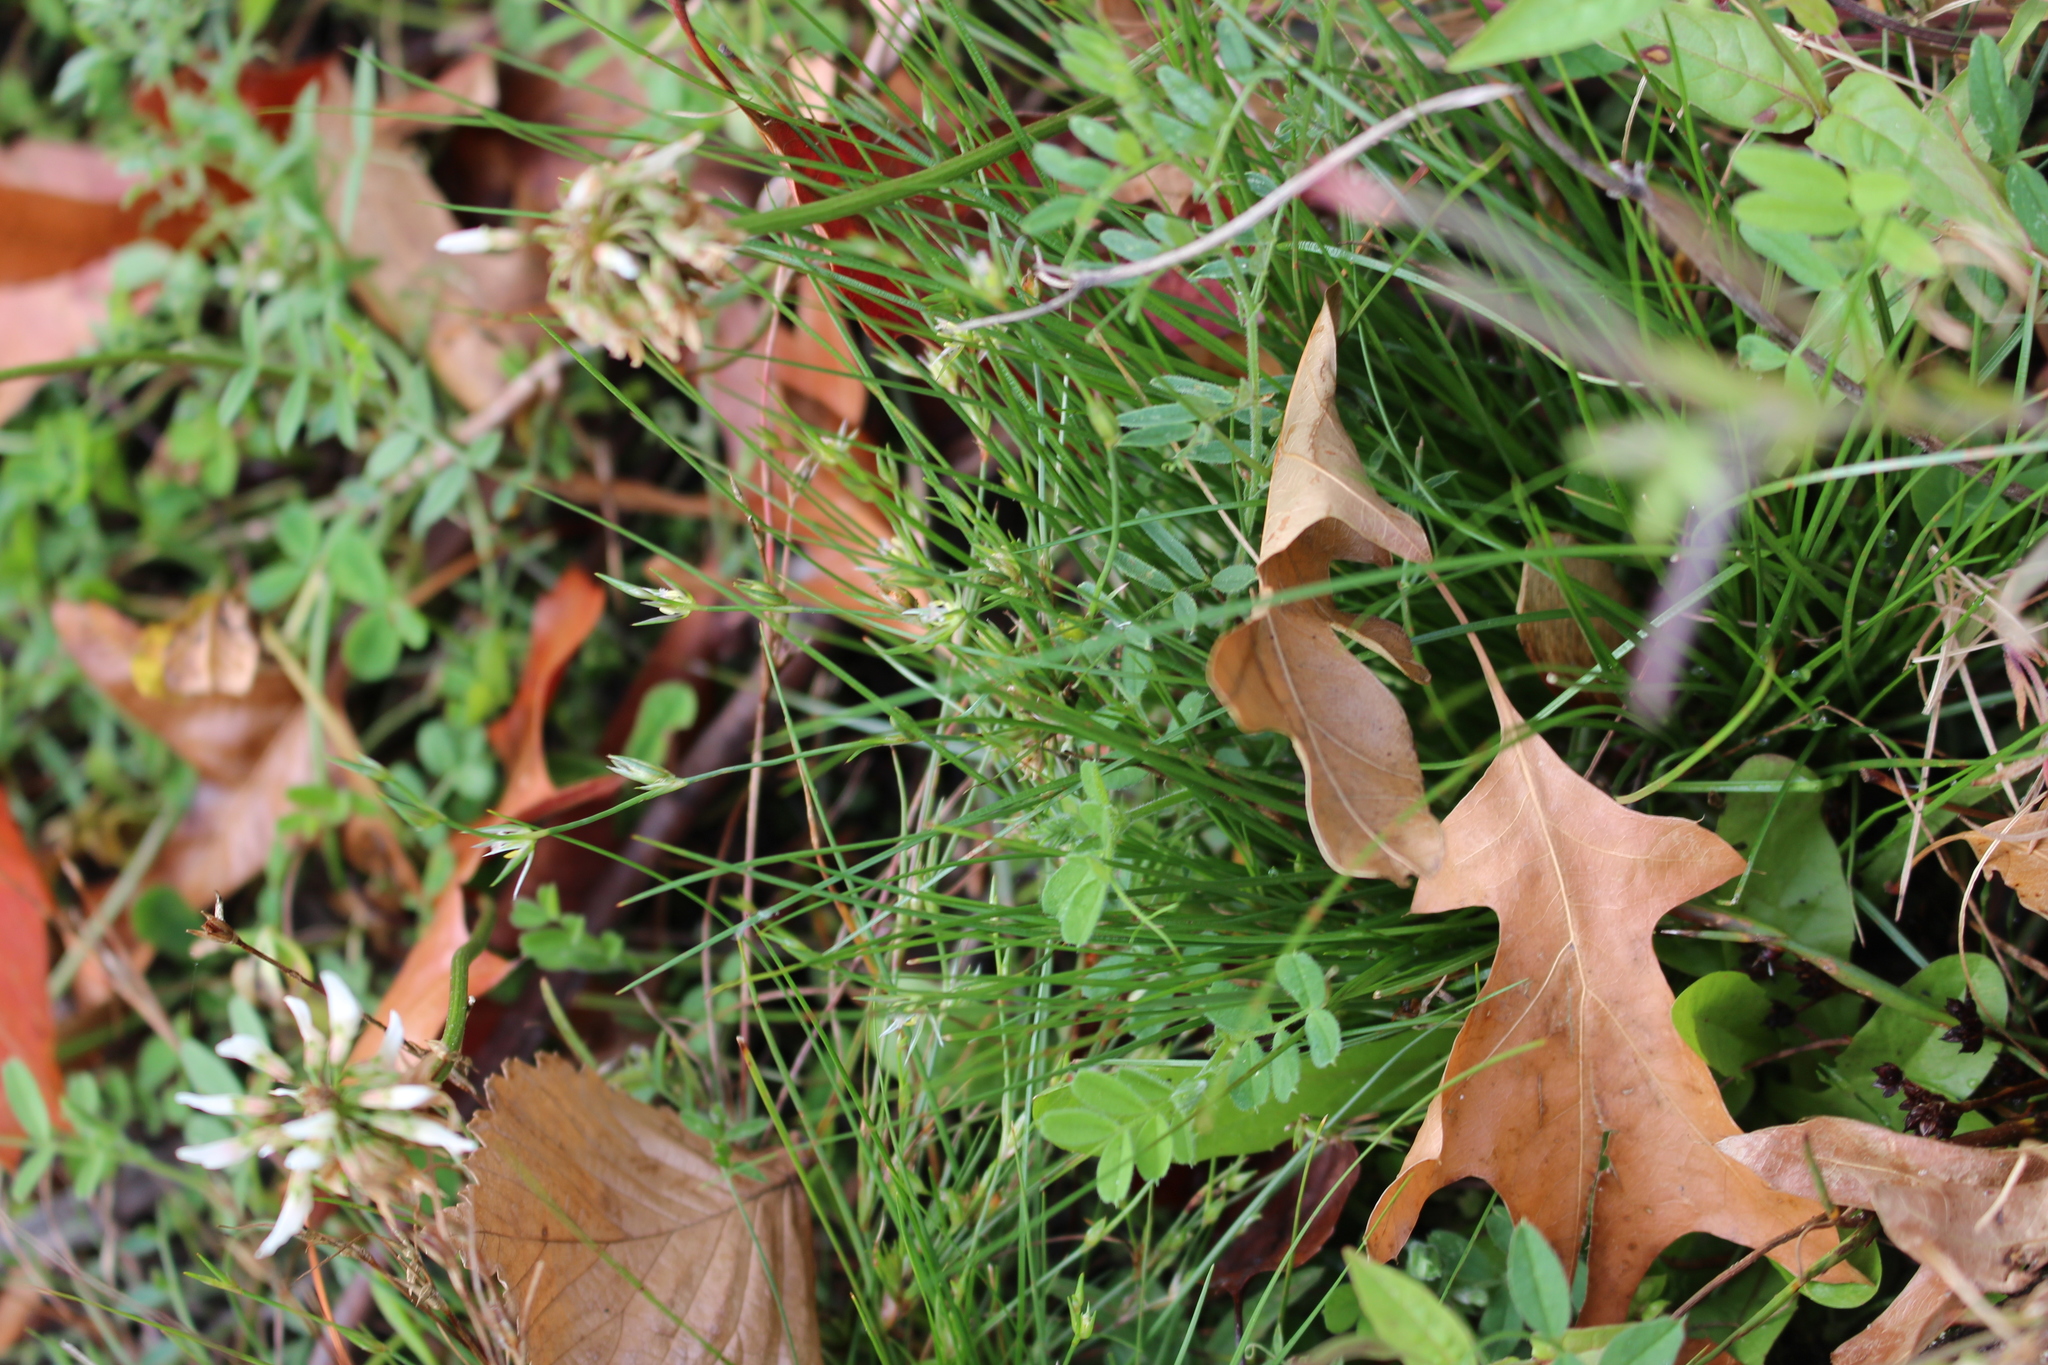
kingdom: Plantae
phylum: Tracheophyta
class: Liliopsida
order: Poales
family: Juncaceae
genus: Juncus
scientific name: Juncus bufonius
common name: Toad rush
